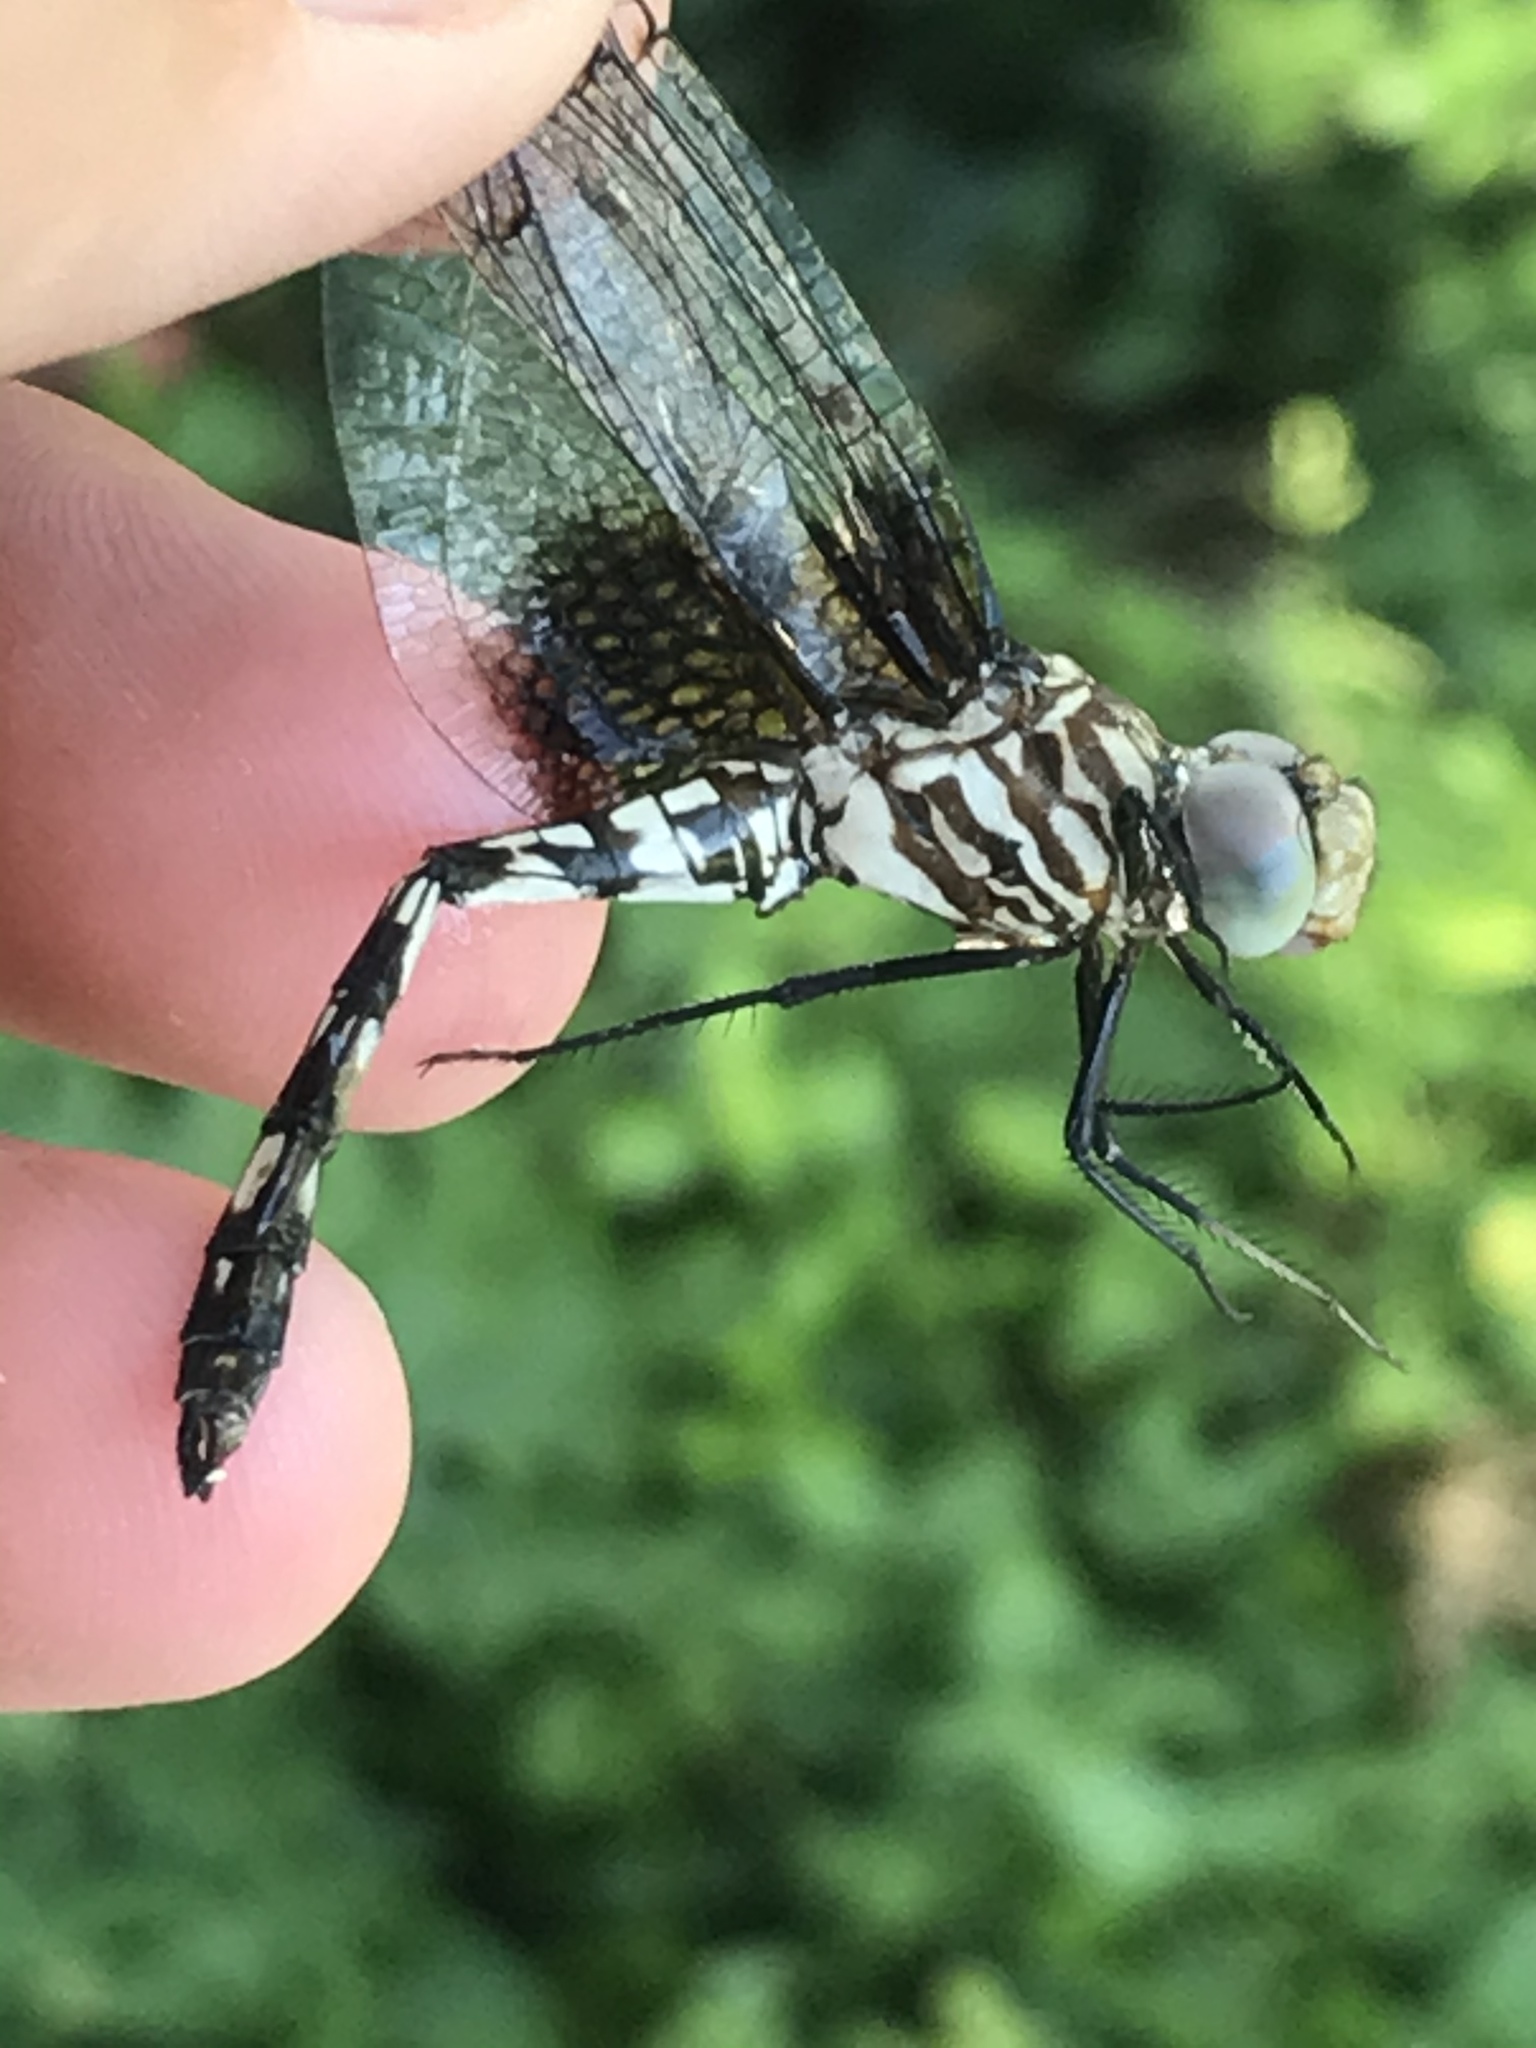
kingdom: Animalia
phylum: Arthropoda
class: Insecta
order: Odonata
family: Libellulidae
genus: Dythemis
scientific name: Dythemis fugax
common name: Checkered setwing
